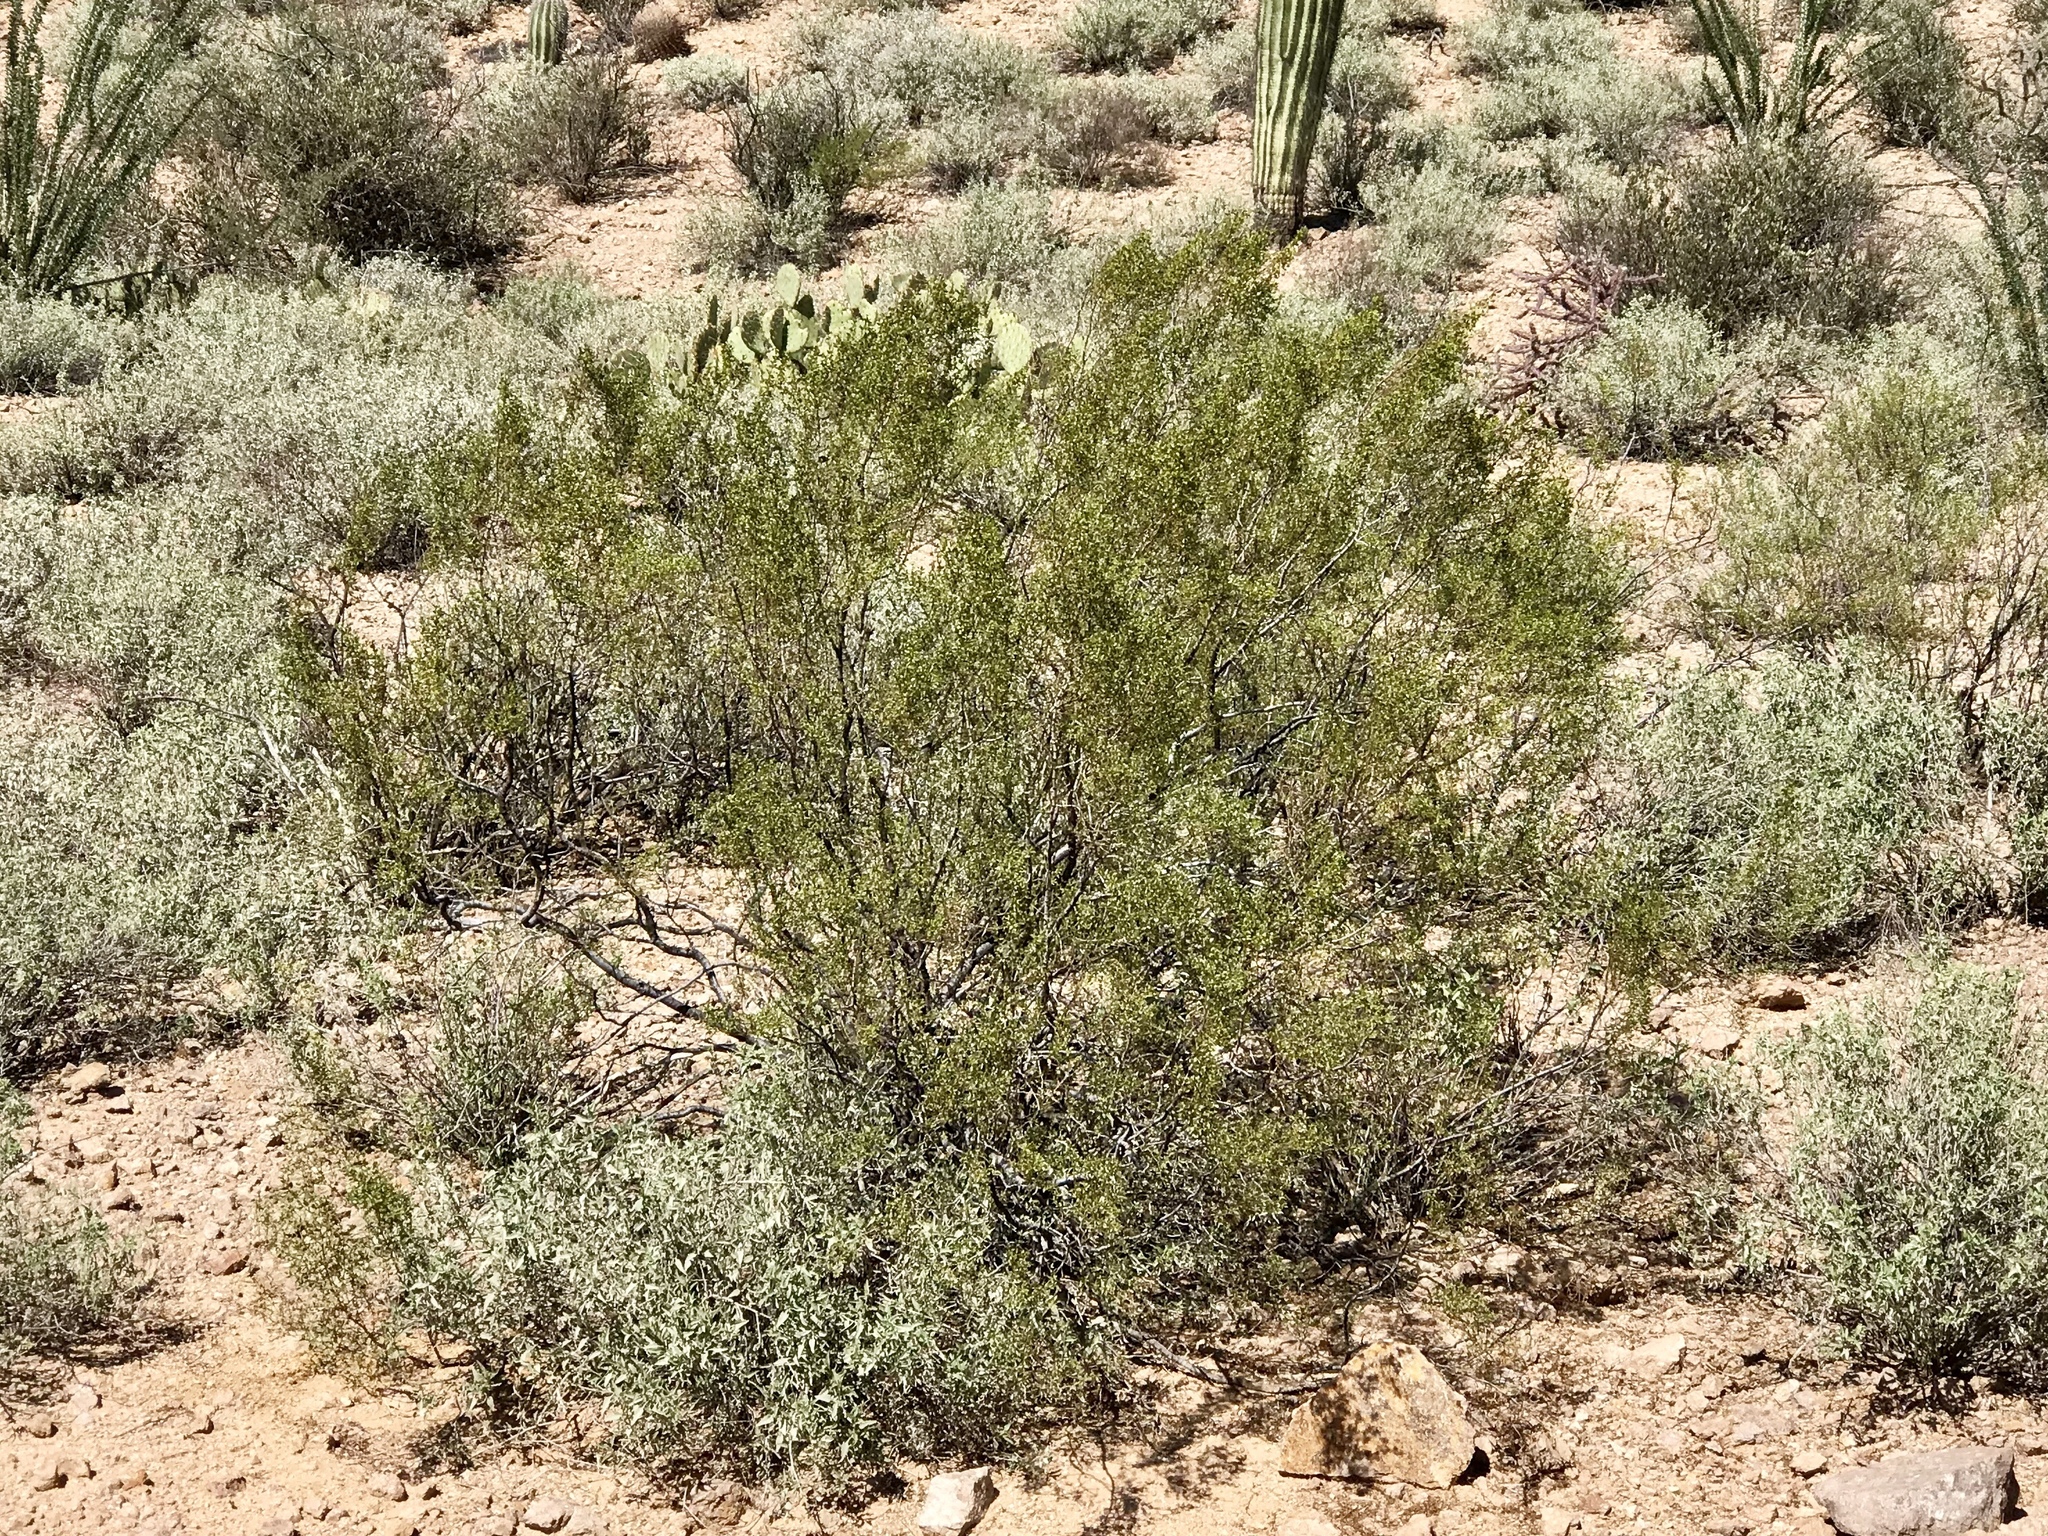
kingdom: Plantae
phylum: Tracheophyta
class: Magnoliopsida
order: Zygophyllales
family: Zygophyllaceae
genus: Larrea
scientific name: Larrea tridentata
